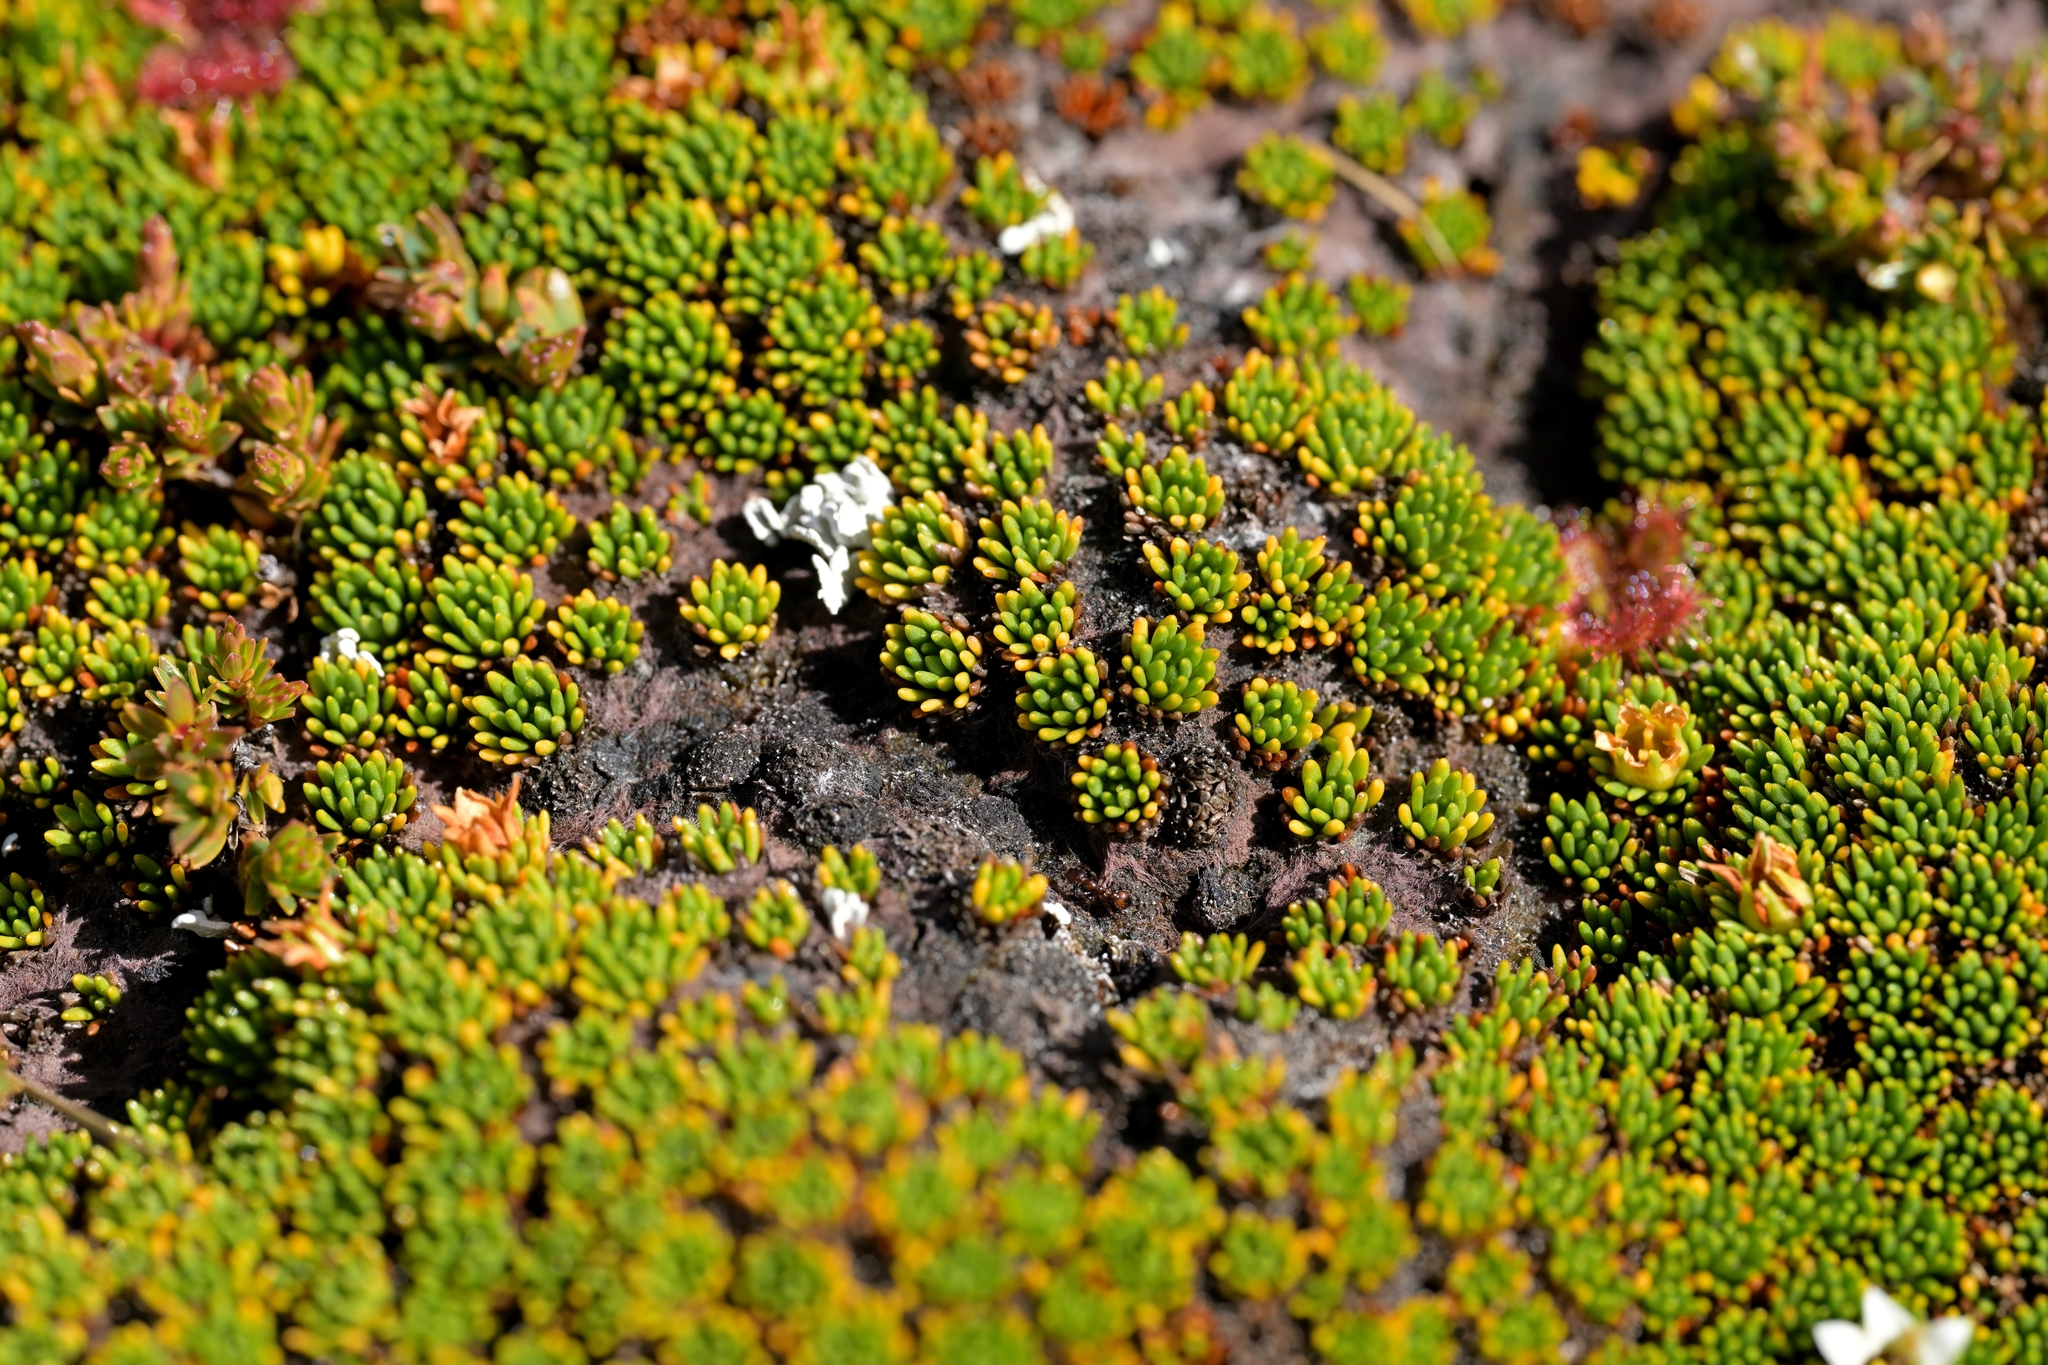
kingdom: Plantae
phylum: Tracheophyta
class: Magnoliopsida
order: Asterales
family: Stylidiaceae
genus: Donatia
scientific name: Donatia novae-zelandiae
